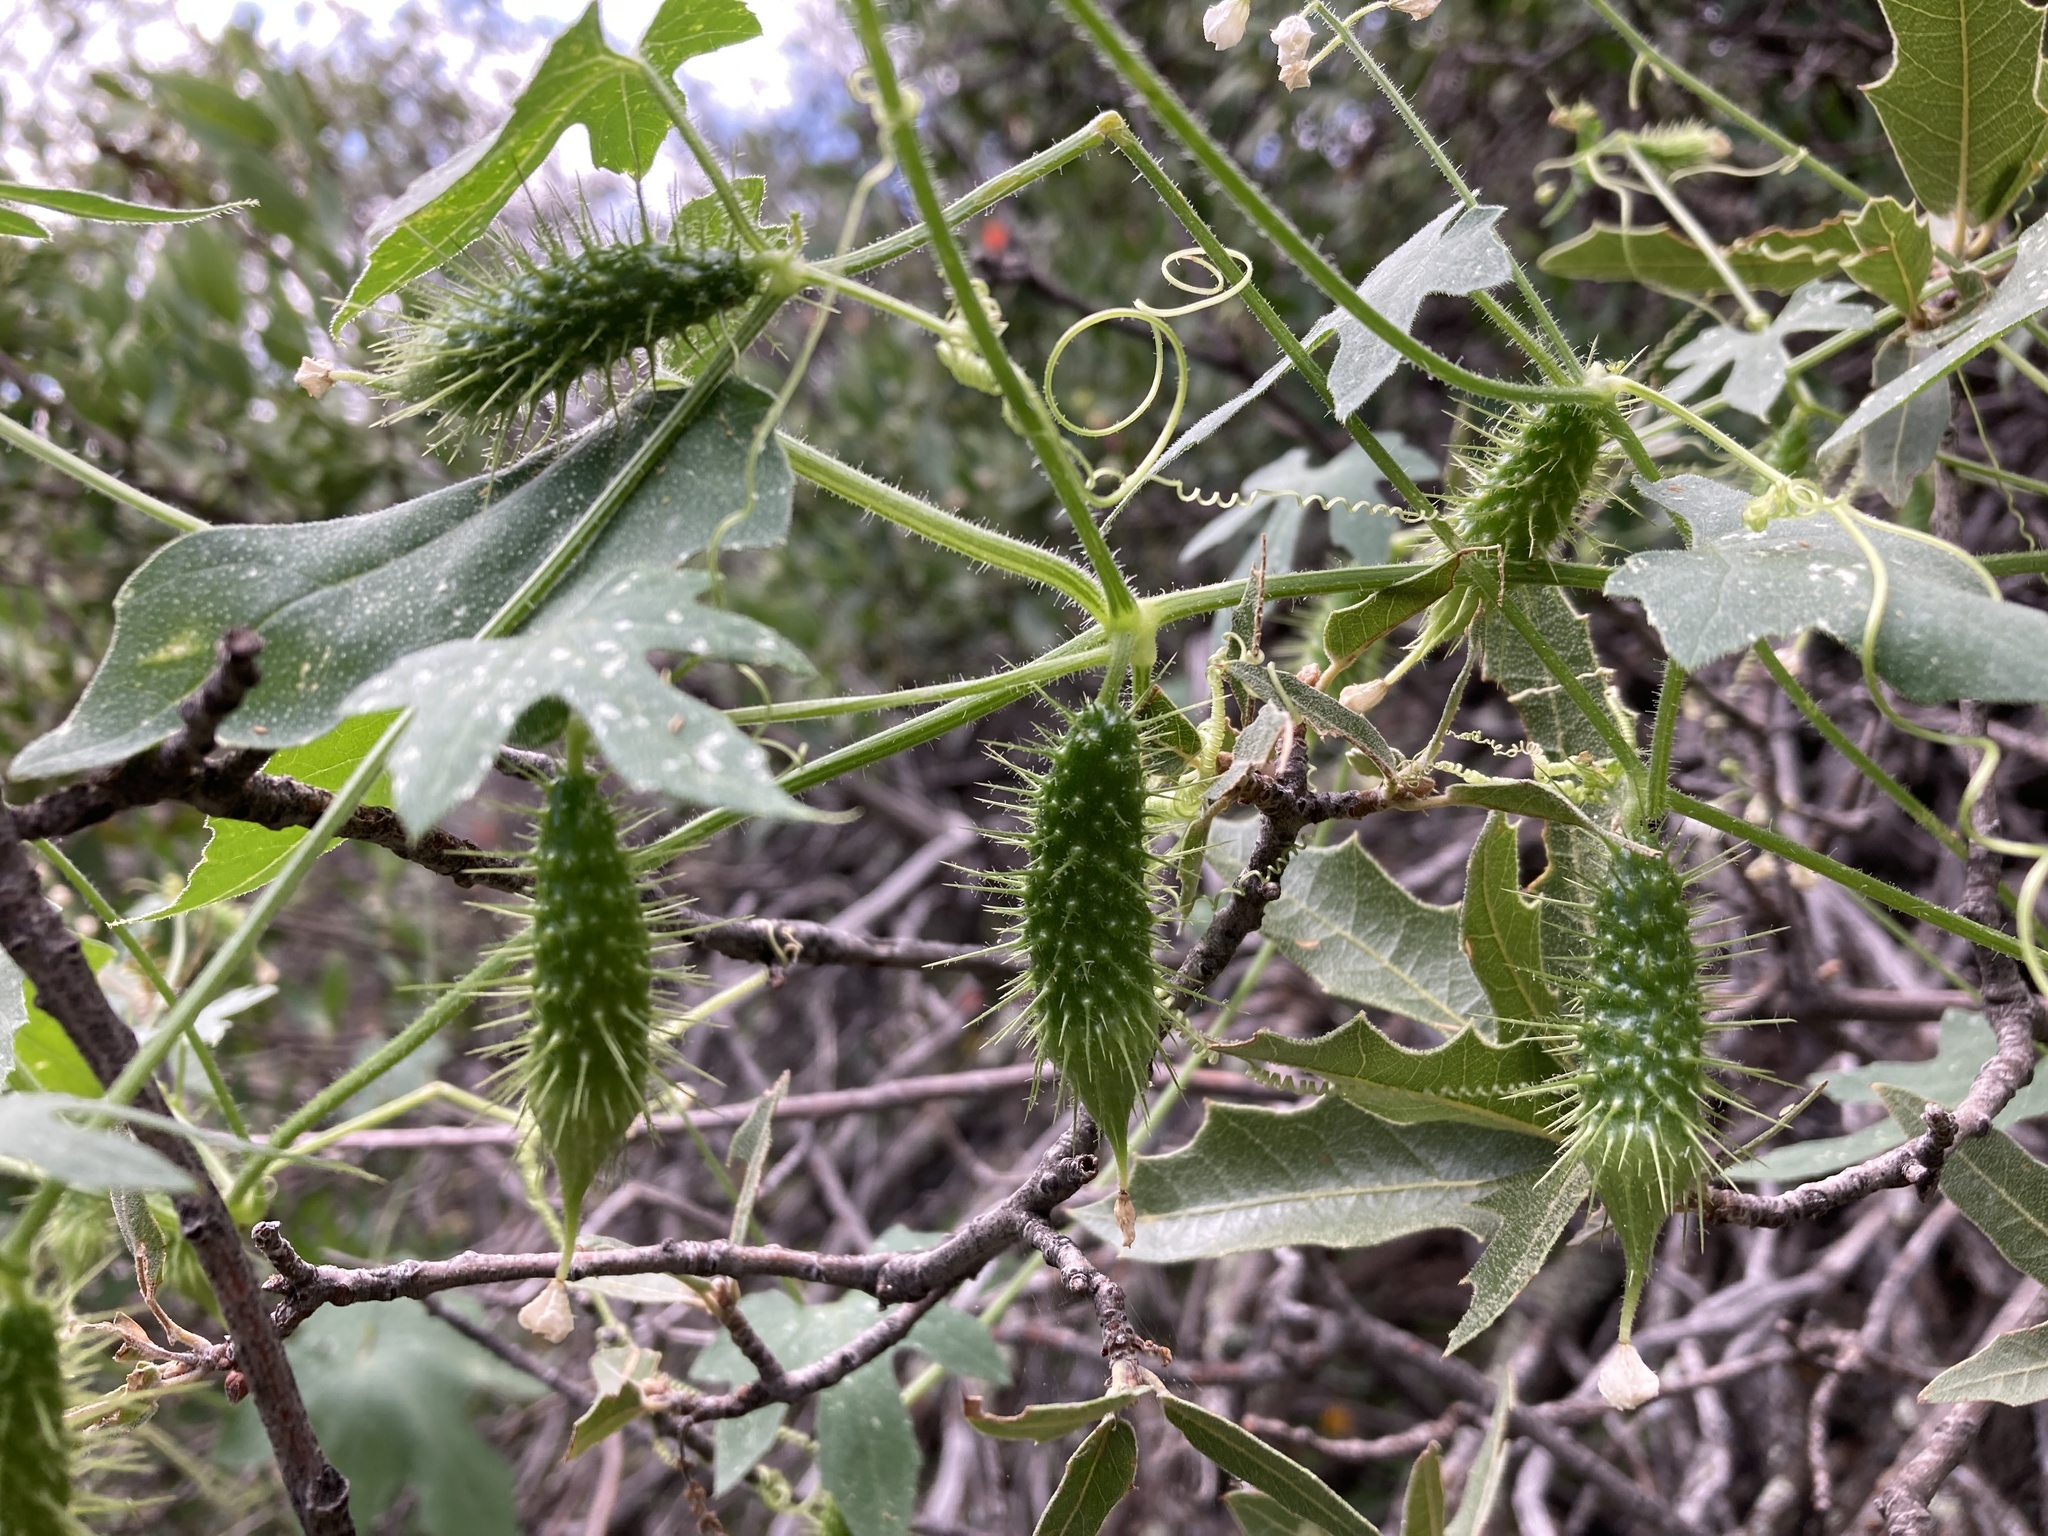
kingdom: Plantae
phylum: Tracheophyta
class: Magnoliopsida
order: Cucurbitales
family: Cucurbitaceae
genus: Echinopepon
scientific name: Echinopepon wrightii
